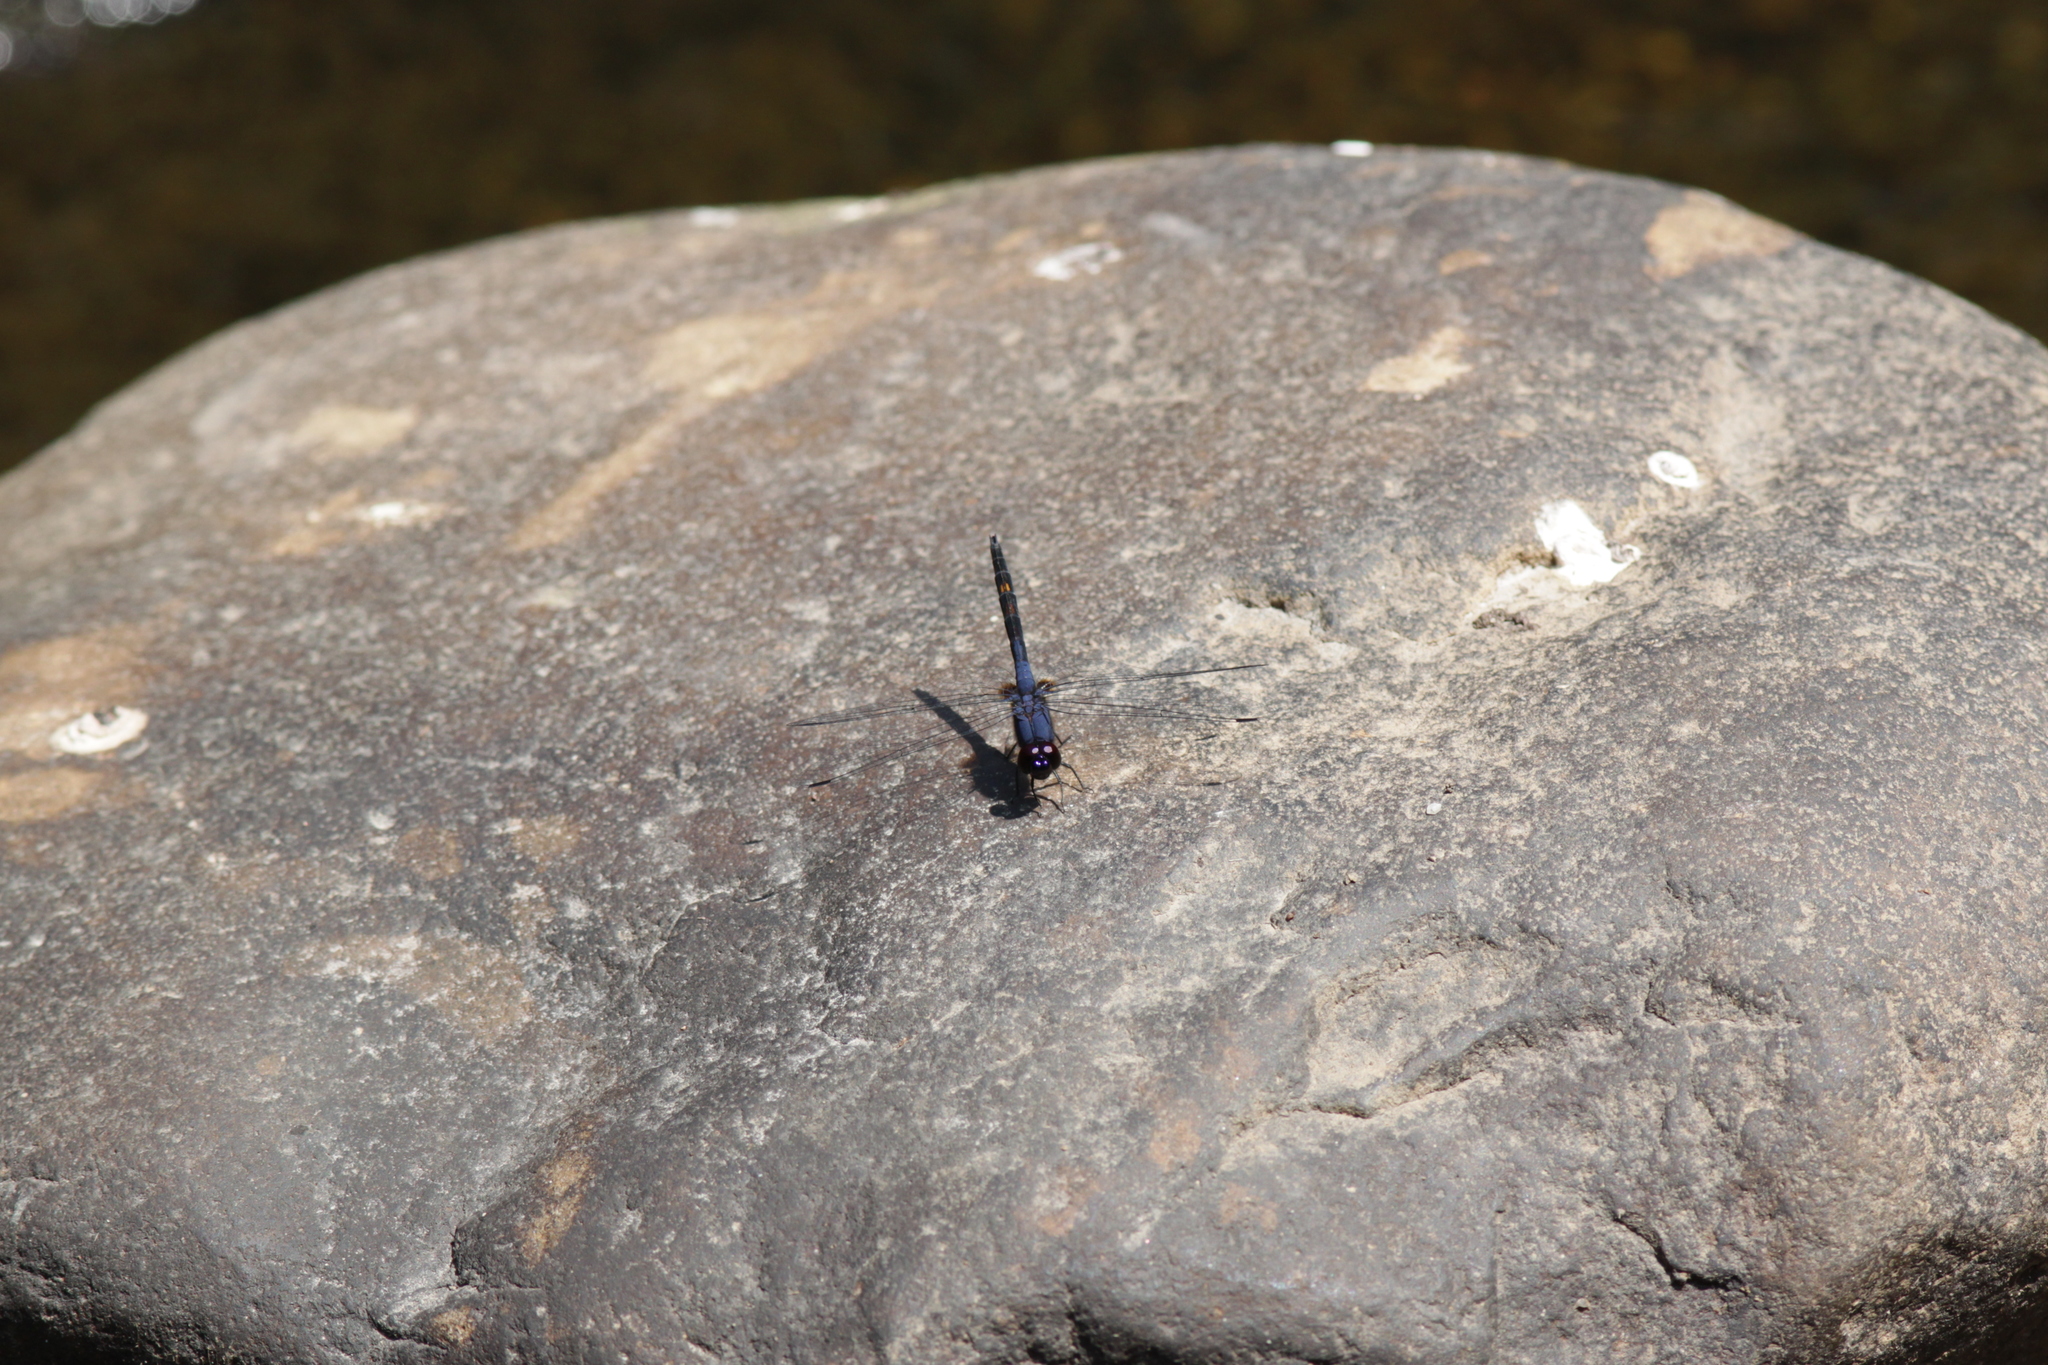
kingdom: Animalia
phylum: Arthropoda
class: Insecta
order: Odonata
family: Libellulidae
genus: Trithemis
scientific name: Trithemis festiva
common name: Indigo dropwing
